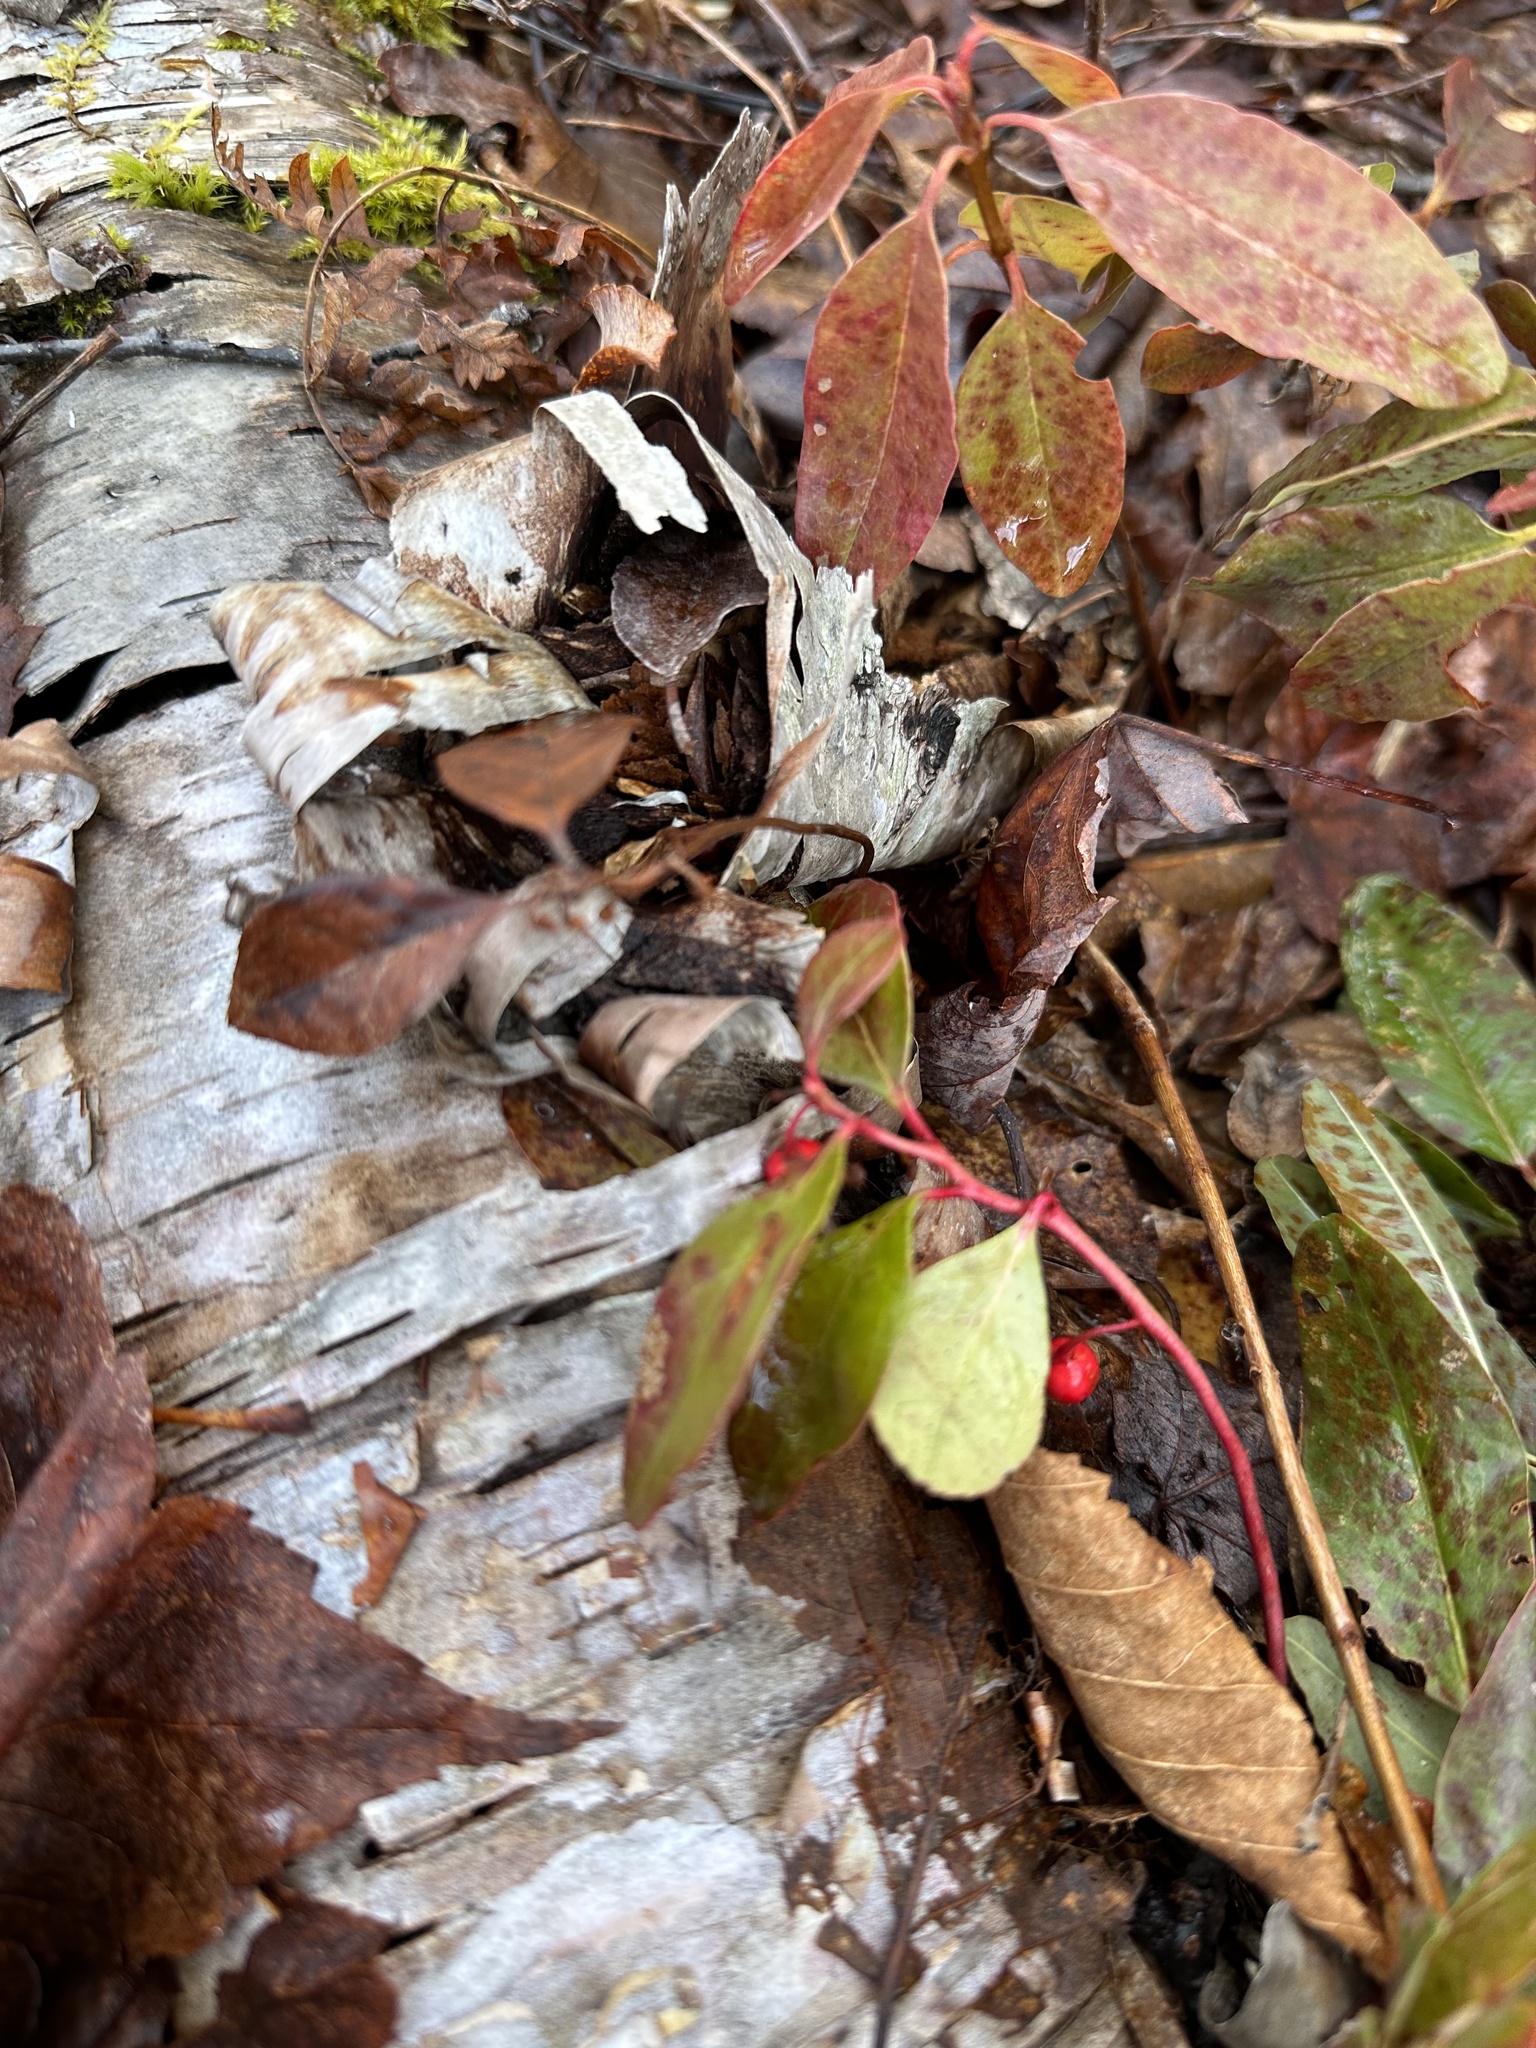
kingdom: Plantae
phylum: Tracheophyta
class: Magnoliopsida
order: Ericales
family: Ericaceae
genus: Gaultheria
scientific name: Gaultheria procumbens
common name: Checkerberry
